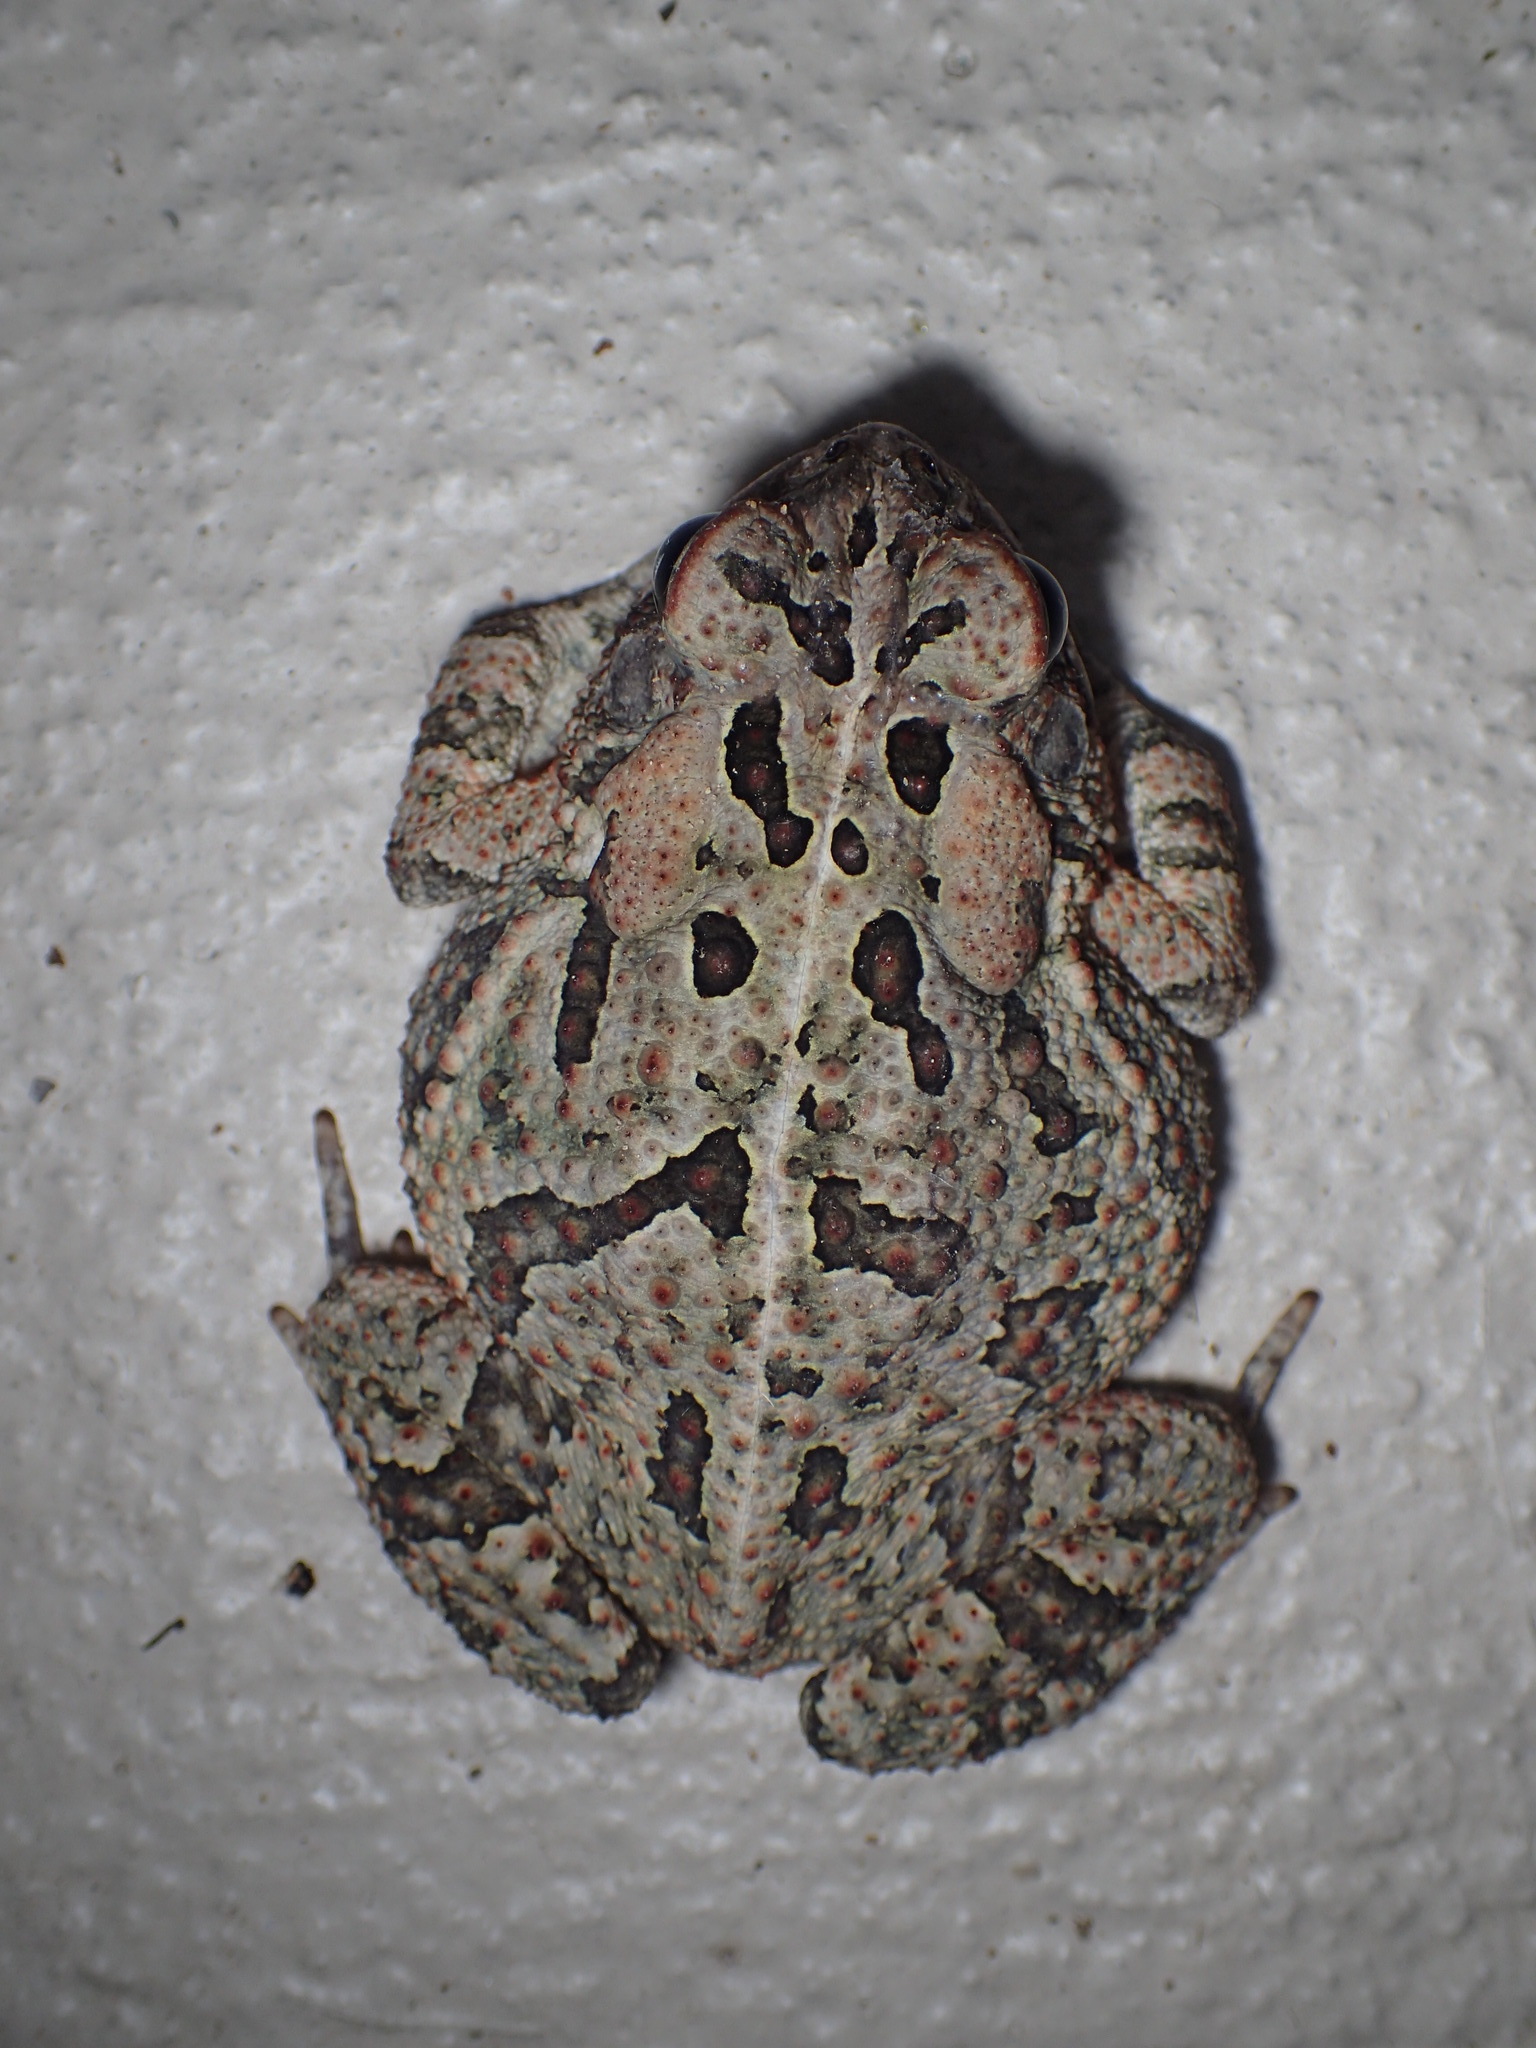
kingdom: Animalia
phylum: Chordata
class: Amphibia
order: Anura
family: Bufonidae
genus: Anaxyrus
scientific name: Anaxyrus fowleri
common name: Fowler's toad
